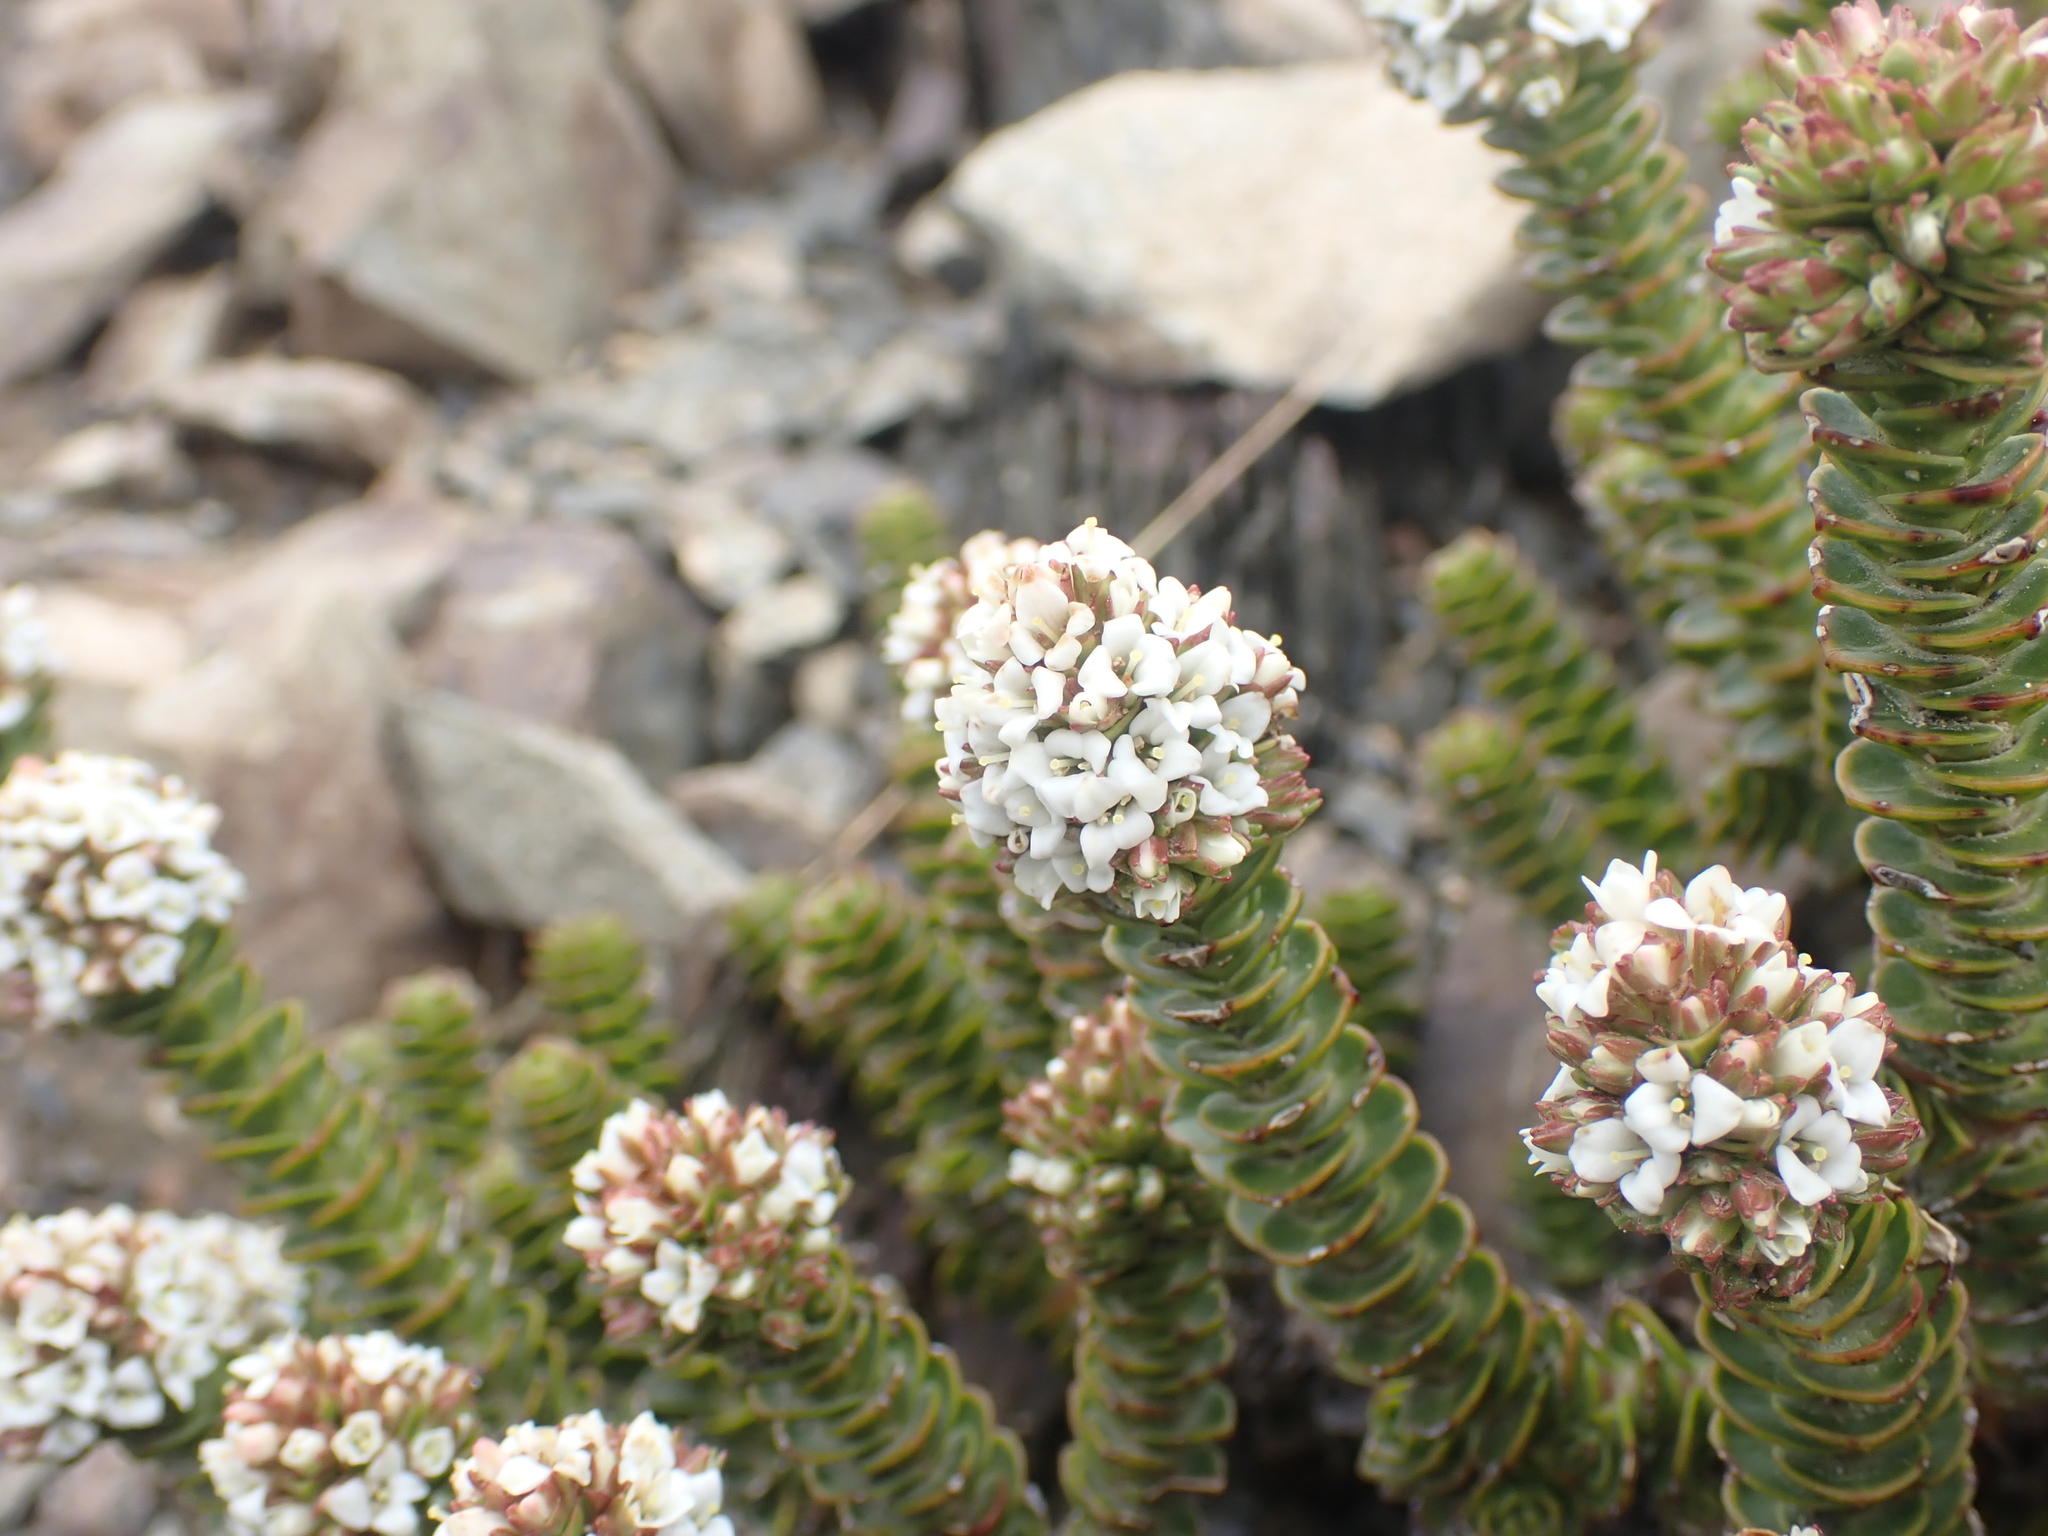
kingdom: Plantae
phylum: Tracheophyta
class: Magnoliopsida
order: Lamiales
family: Plantaginaceae
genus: Veronica
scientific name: Veronica epacridea
